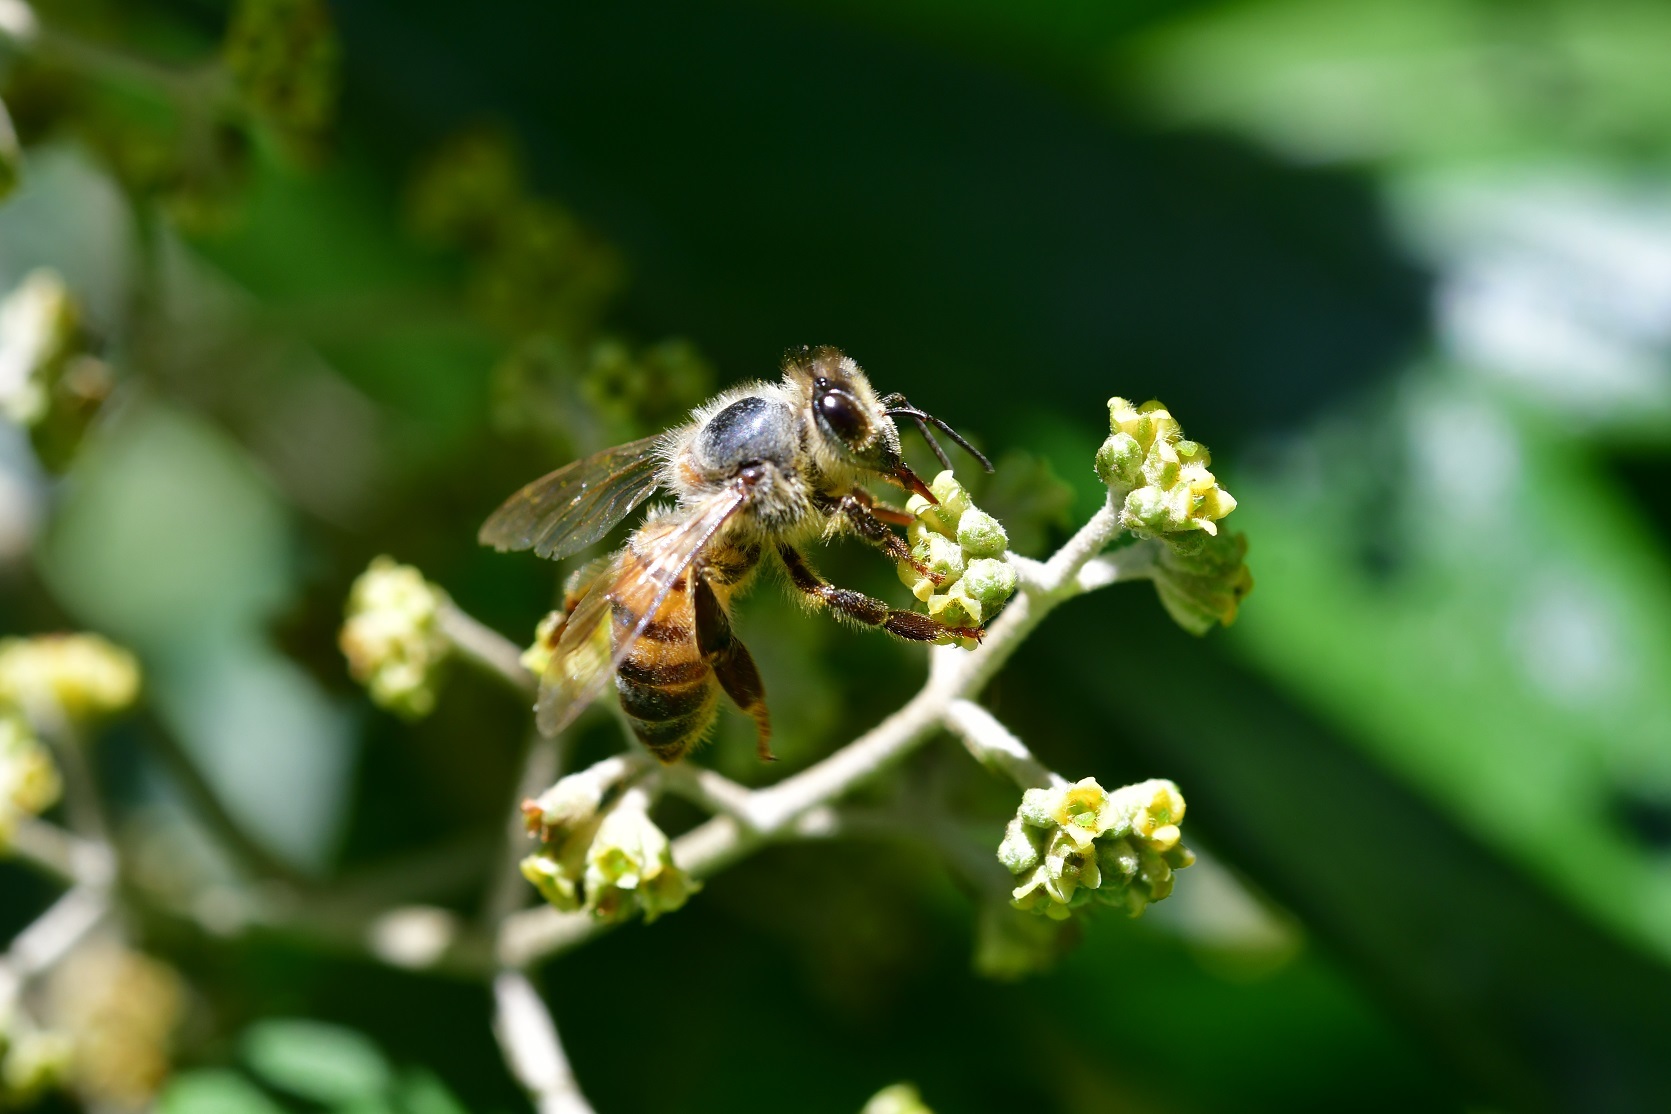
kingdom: Animalia
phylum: Arthropoda
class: Insecta
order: Hymenoptera
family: Apidae
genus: Apis
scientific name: Apis mellifera
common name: Honey bee
